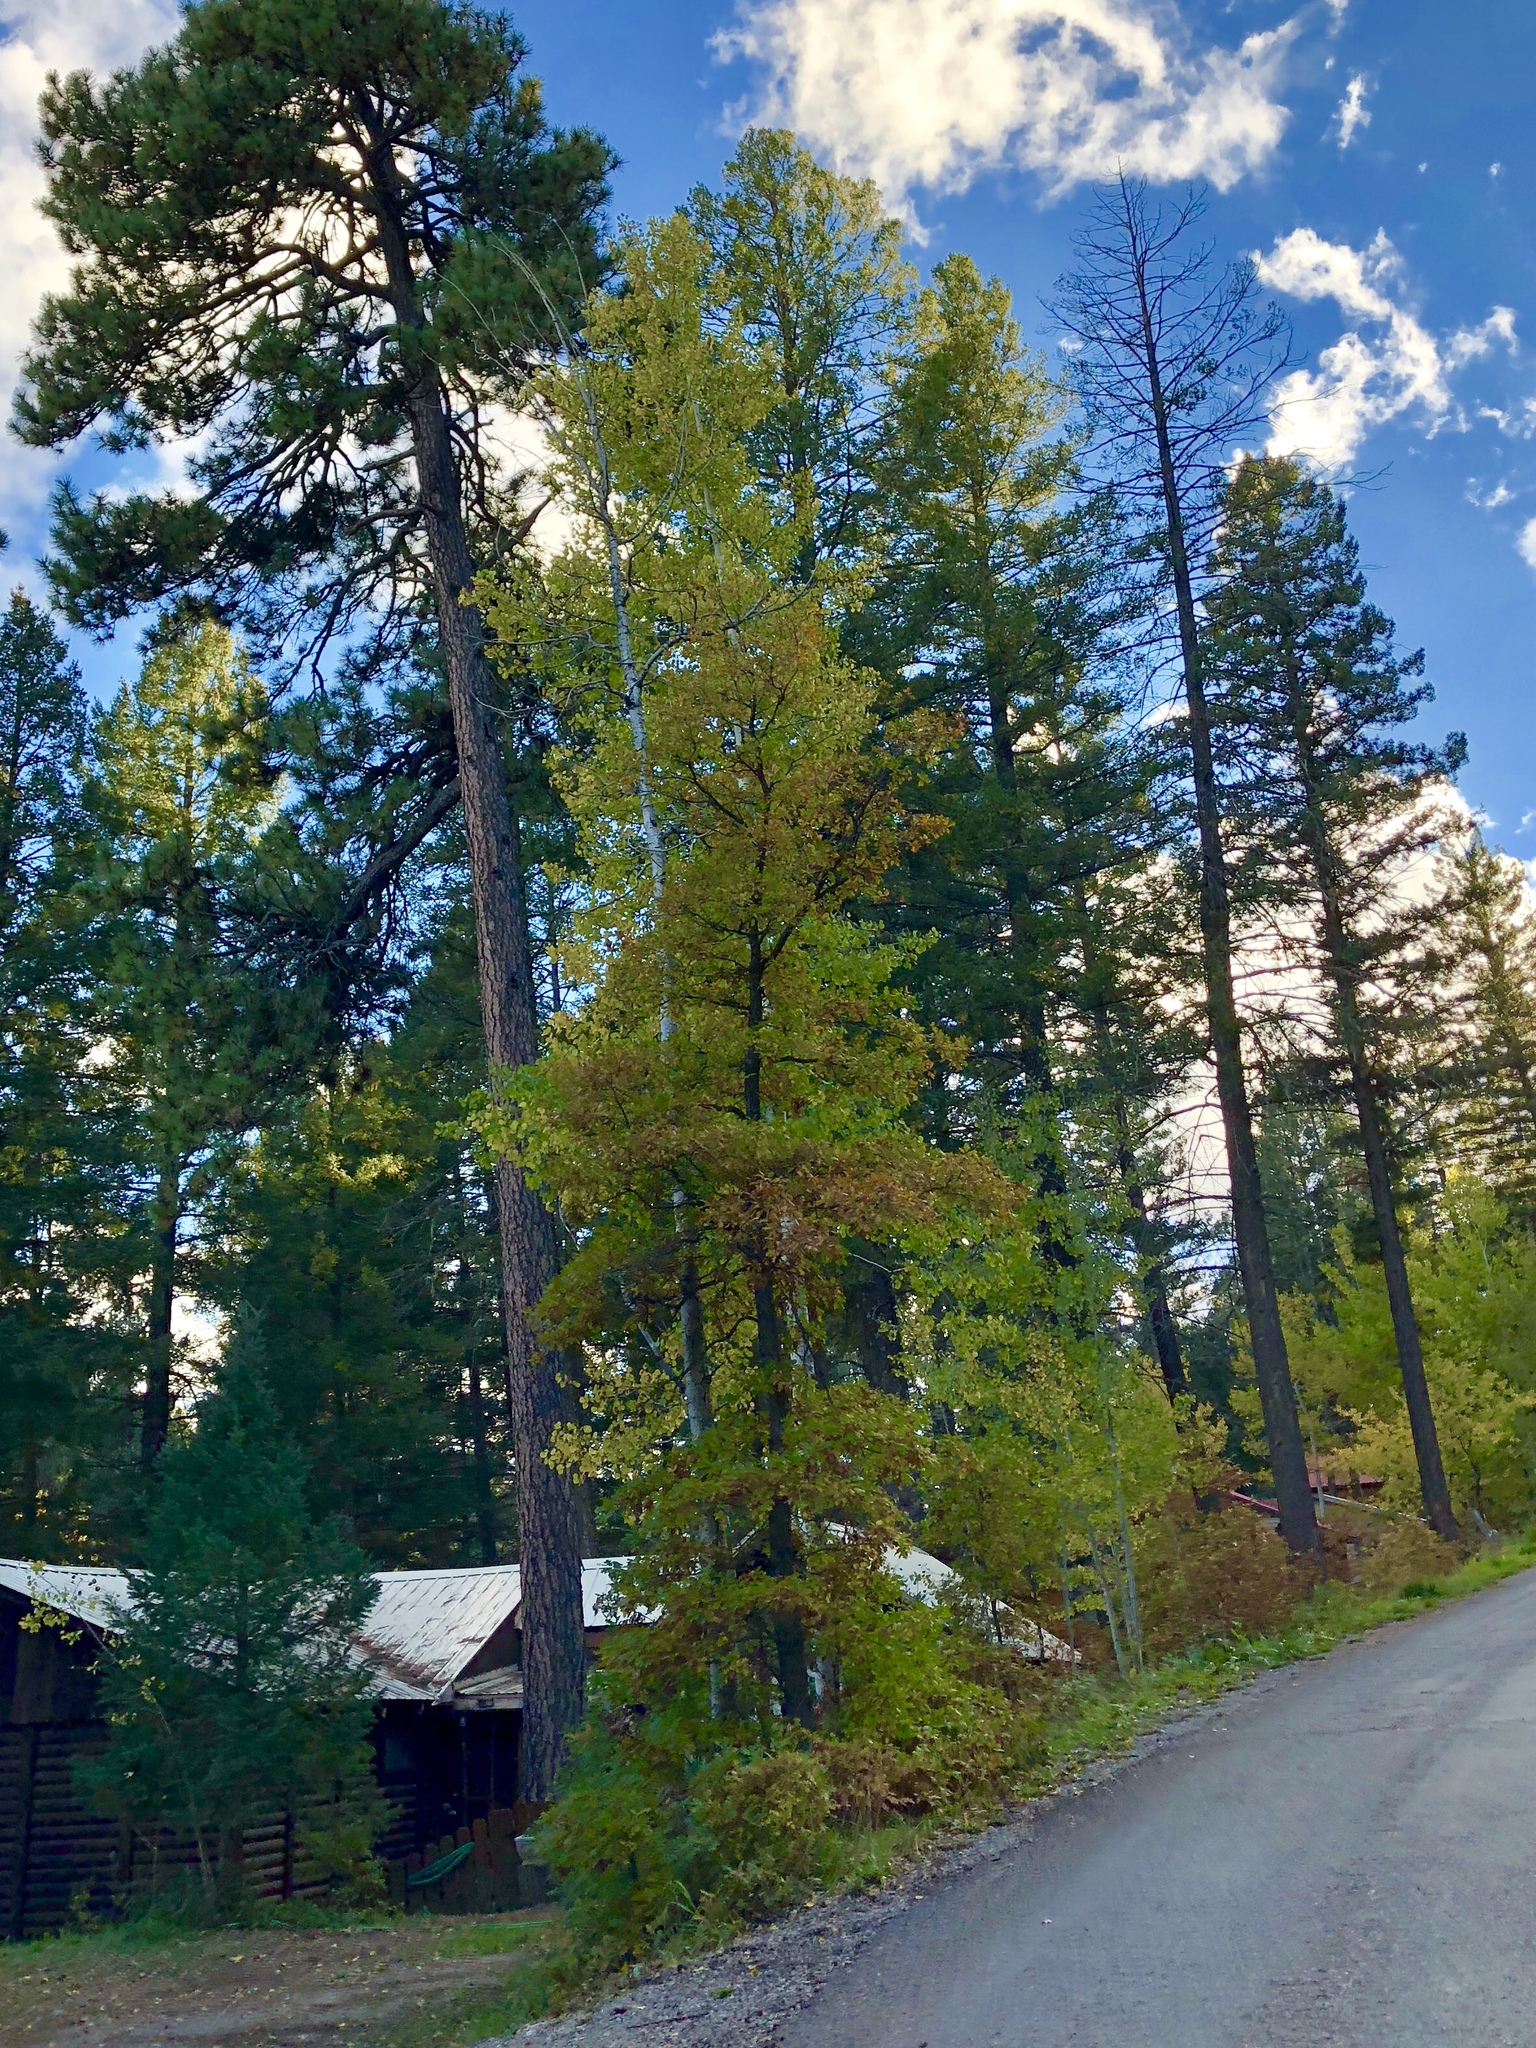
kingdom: Plantae
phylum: Tracheophyta
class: Magnoliopsida
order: Malpighiales
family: Salicaceae
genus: Populus
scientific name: Populus tremuloides
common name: Quaking aspen
